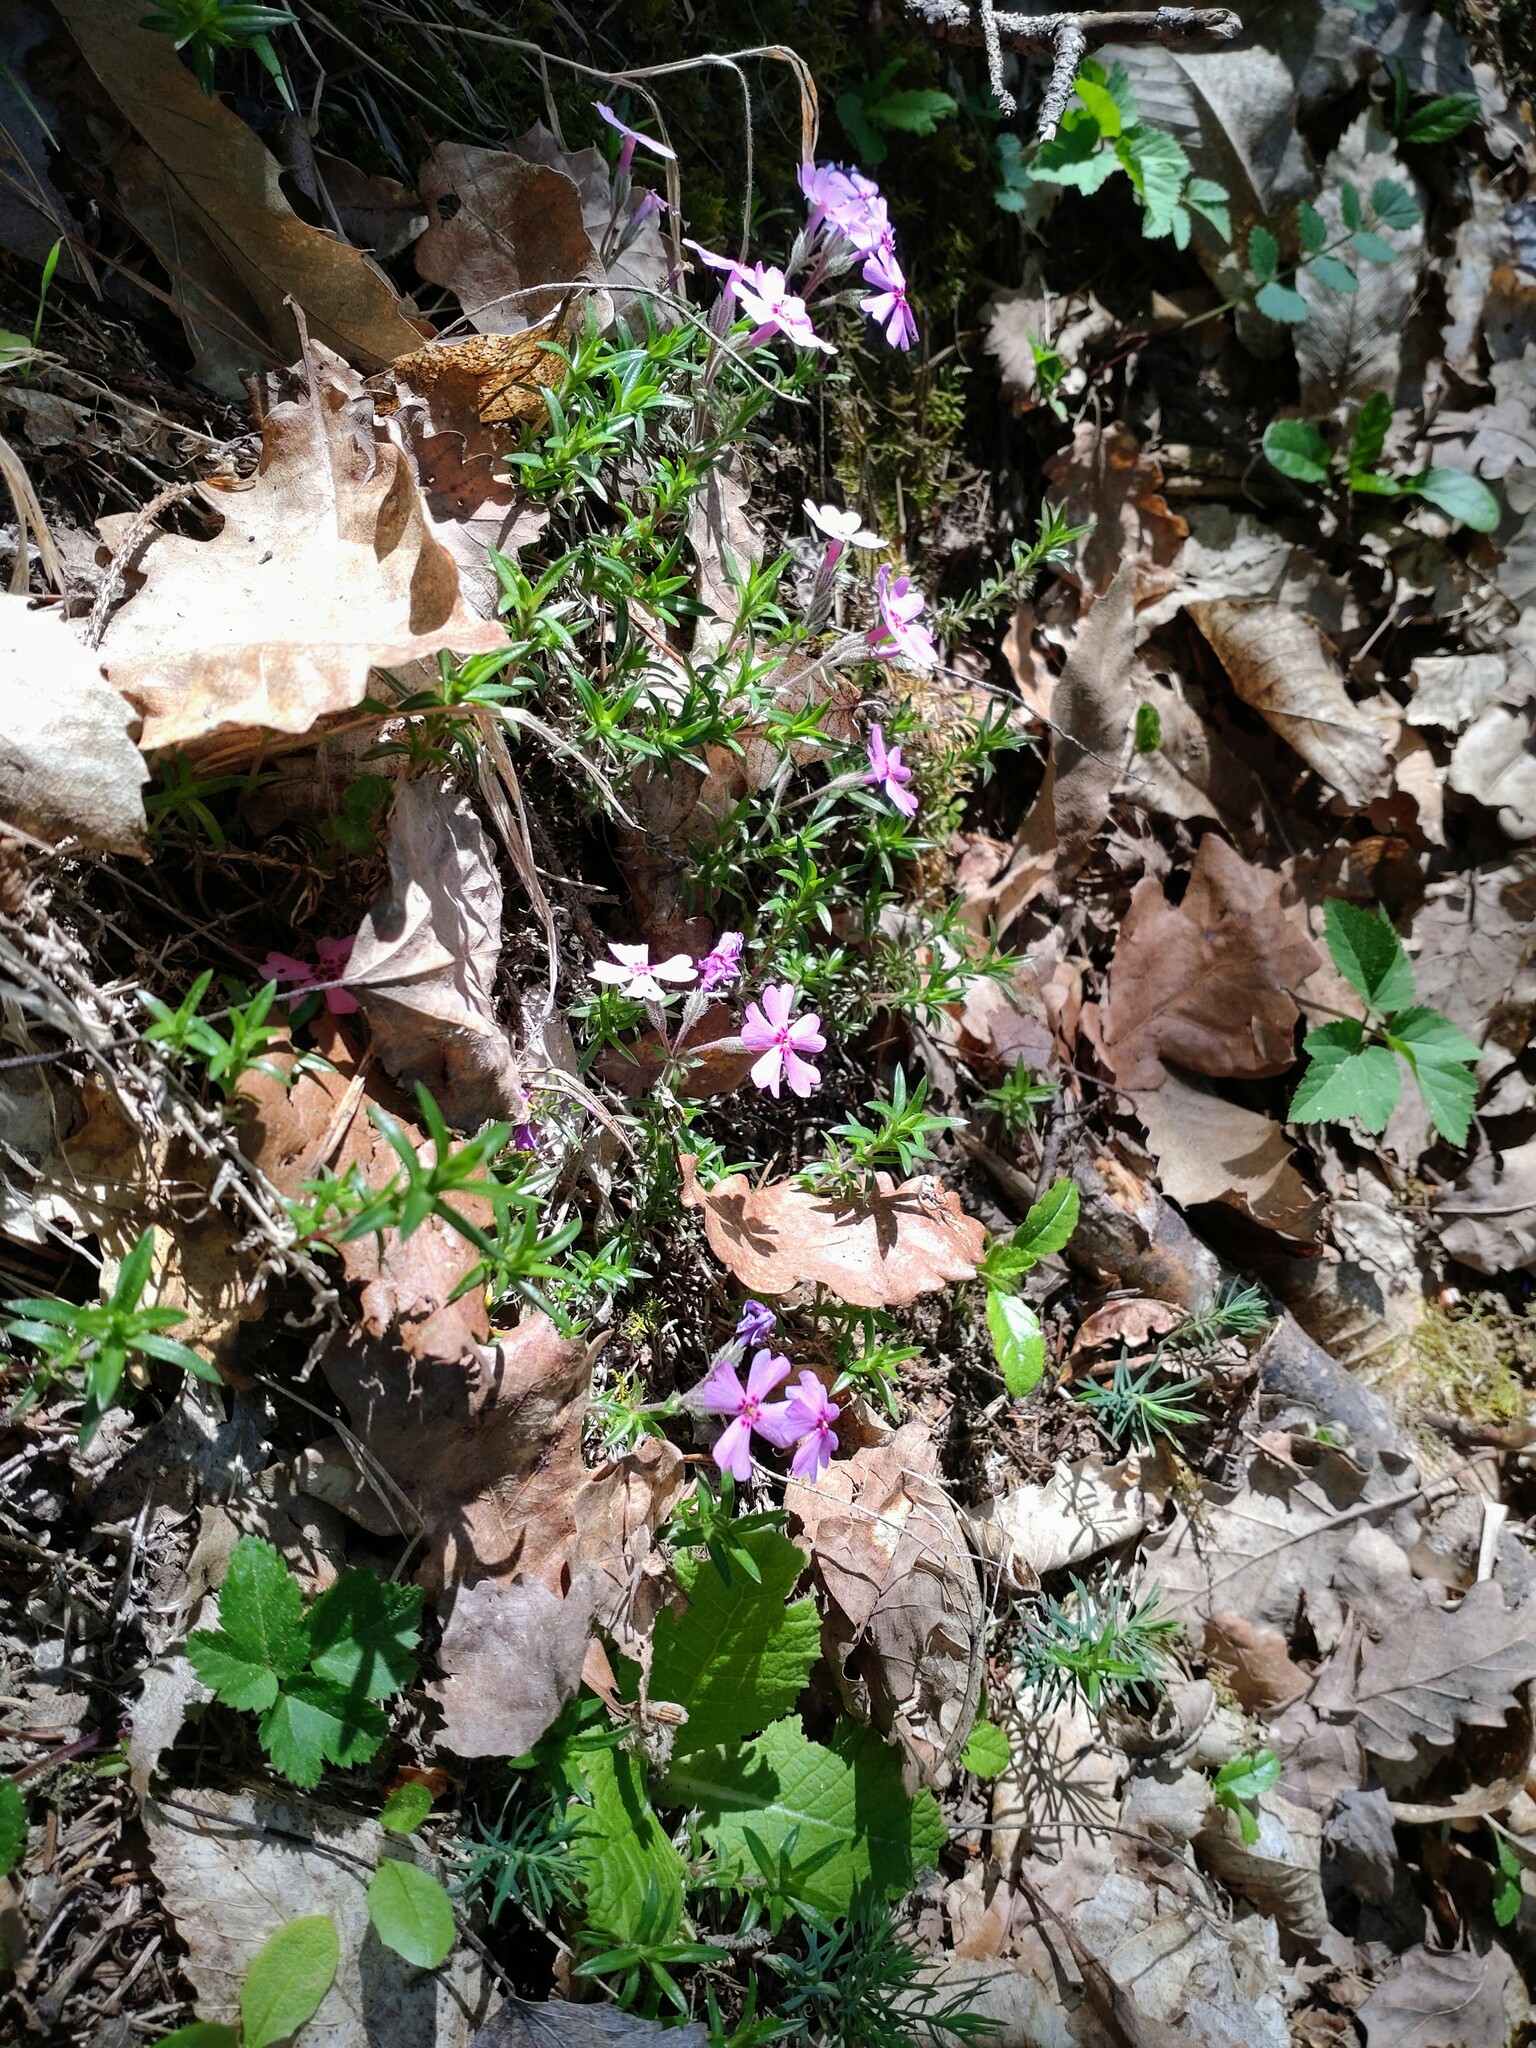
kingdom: Plantae
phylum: Tracheophyta
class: Magnoliopsida
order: Ericales
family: Polemoniaceae
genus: Phlox
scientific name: Phlox subulata
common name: Moss phlox
